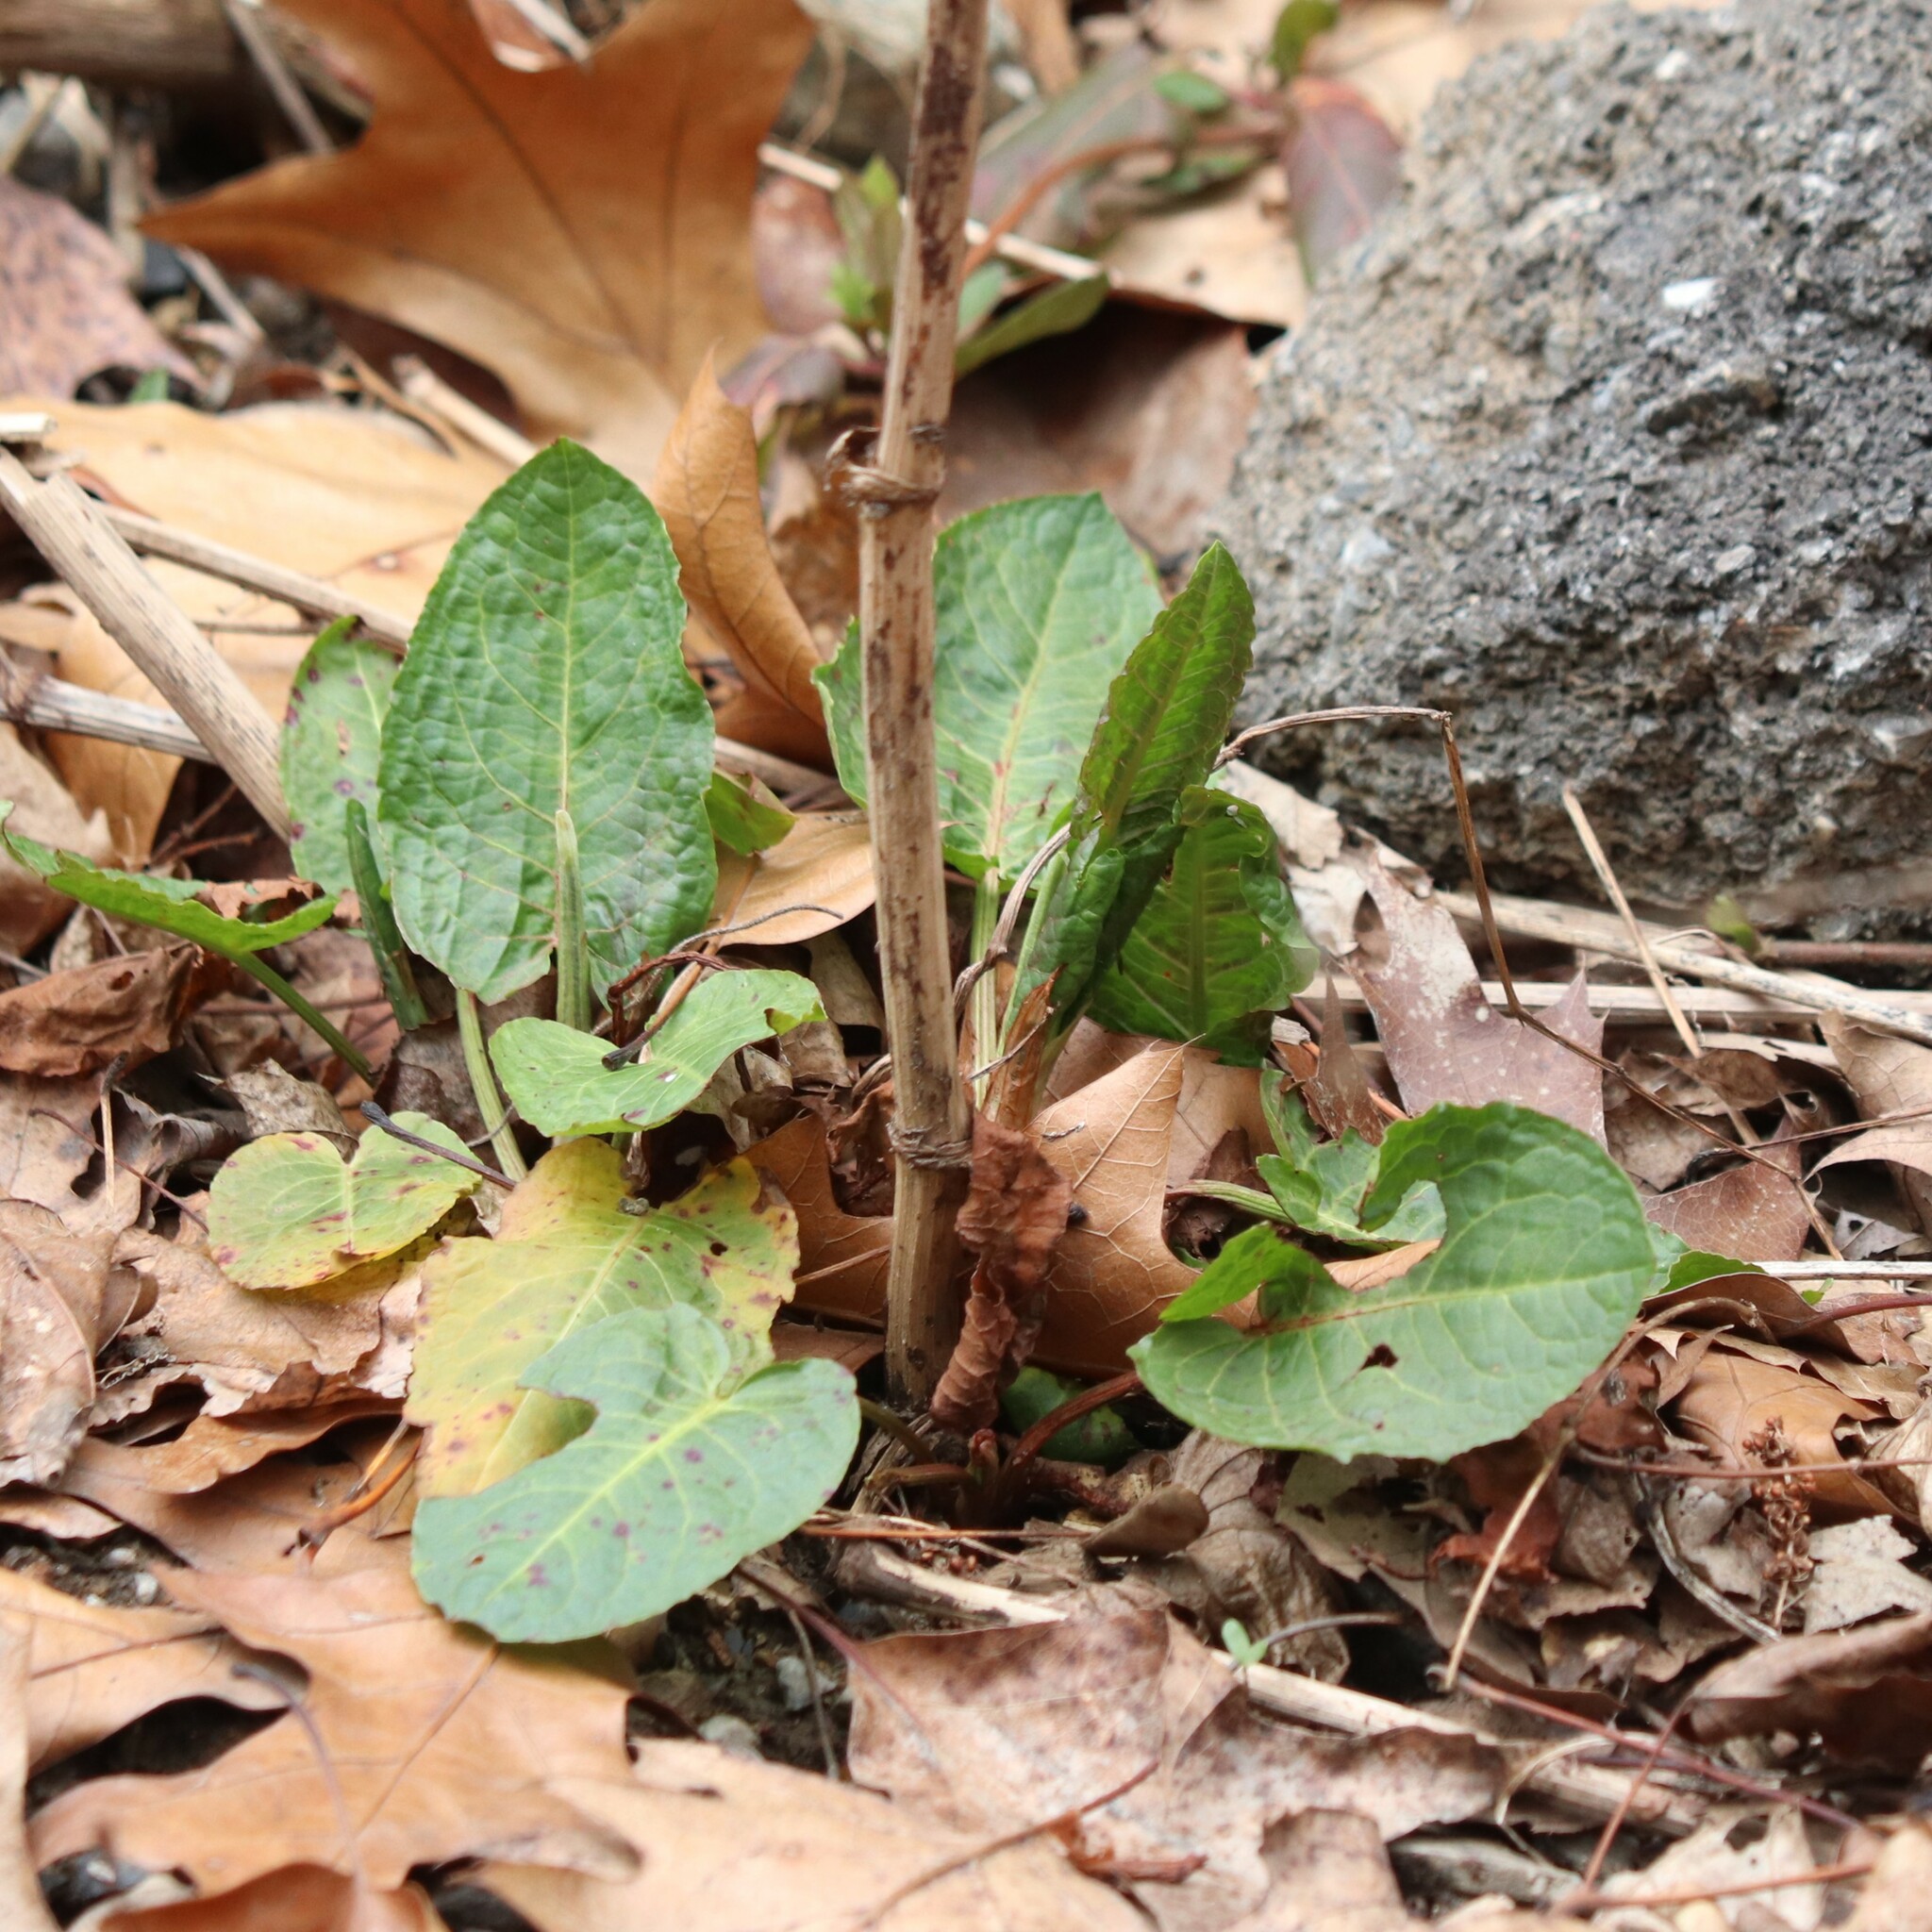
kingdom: Plantae
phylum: Tracheophyta
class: Magnoliopsida
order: Caryophyllales
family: Polygonaceae
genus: Rumex
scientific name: Rumex obtusifolius
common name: Bitter dock
